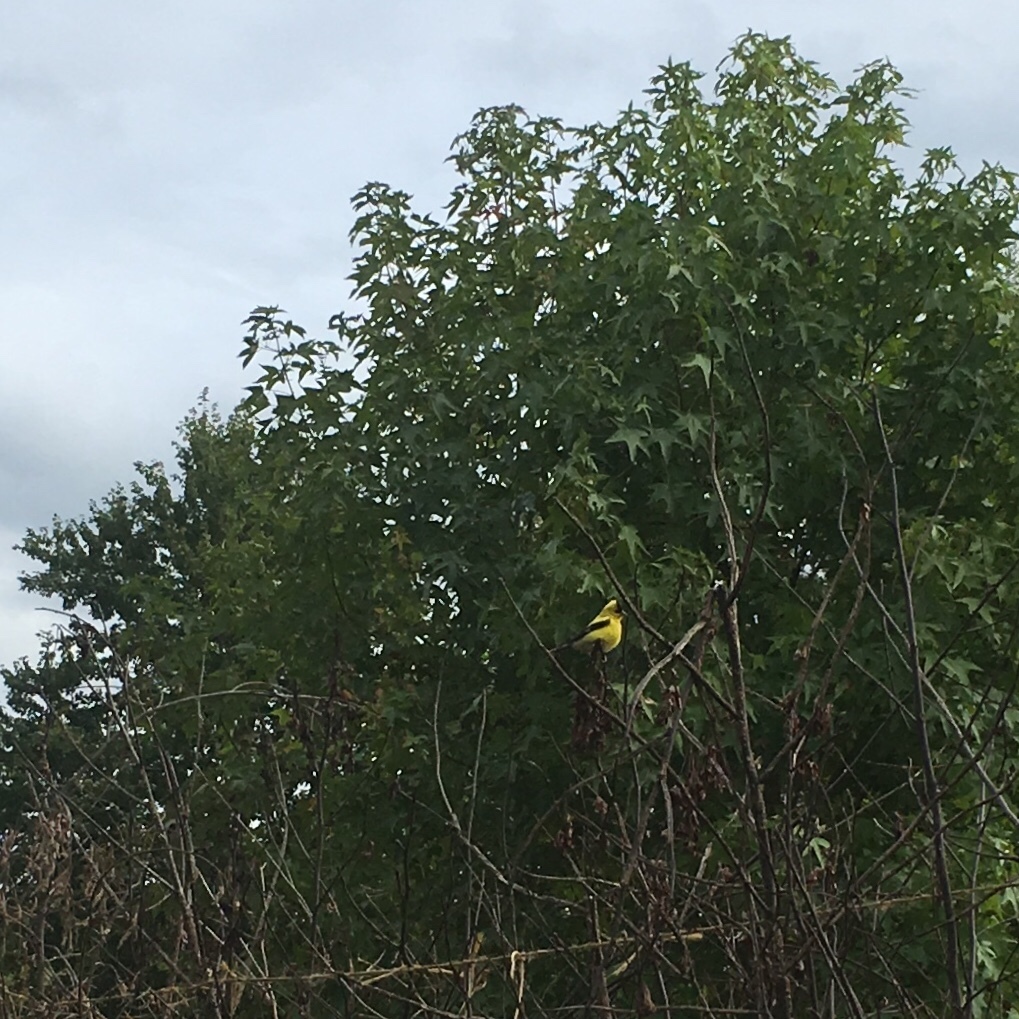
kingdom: Animalia
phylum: Chordata
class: Aves
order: Passeriformes
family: Fringillidae
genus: Spinus
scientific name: Spinus tristis
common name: American goldfinch
